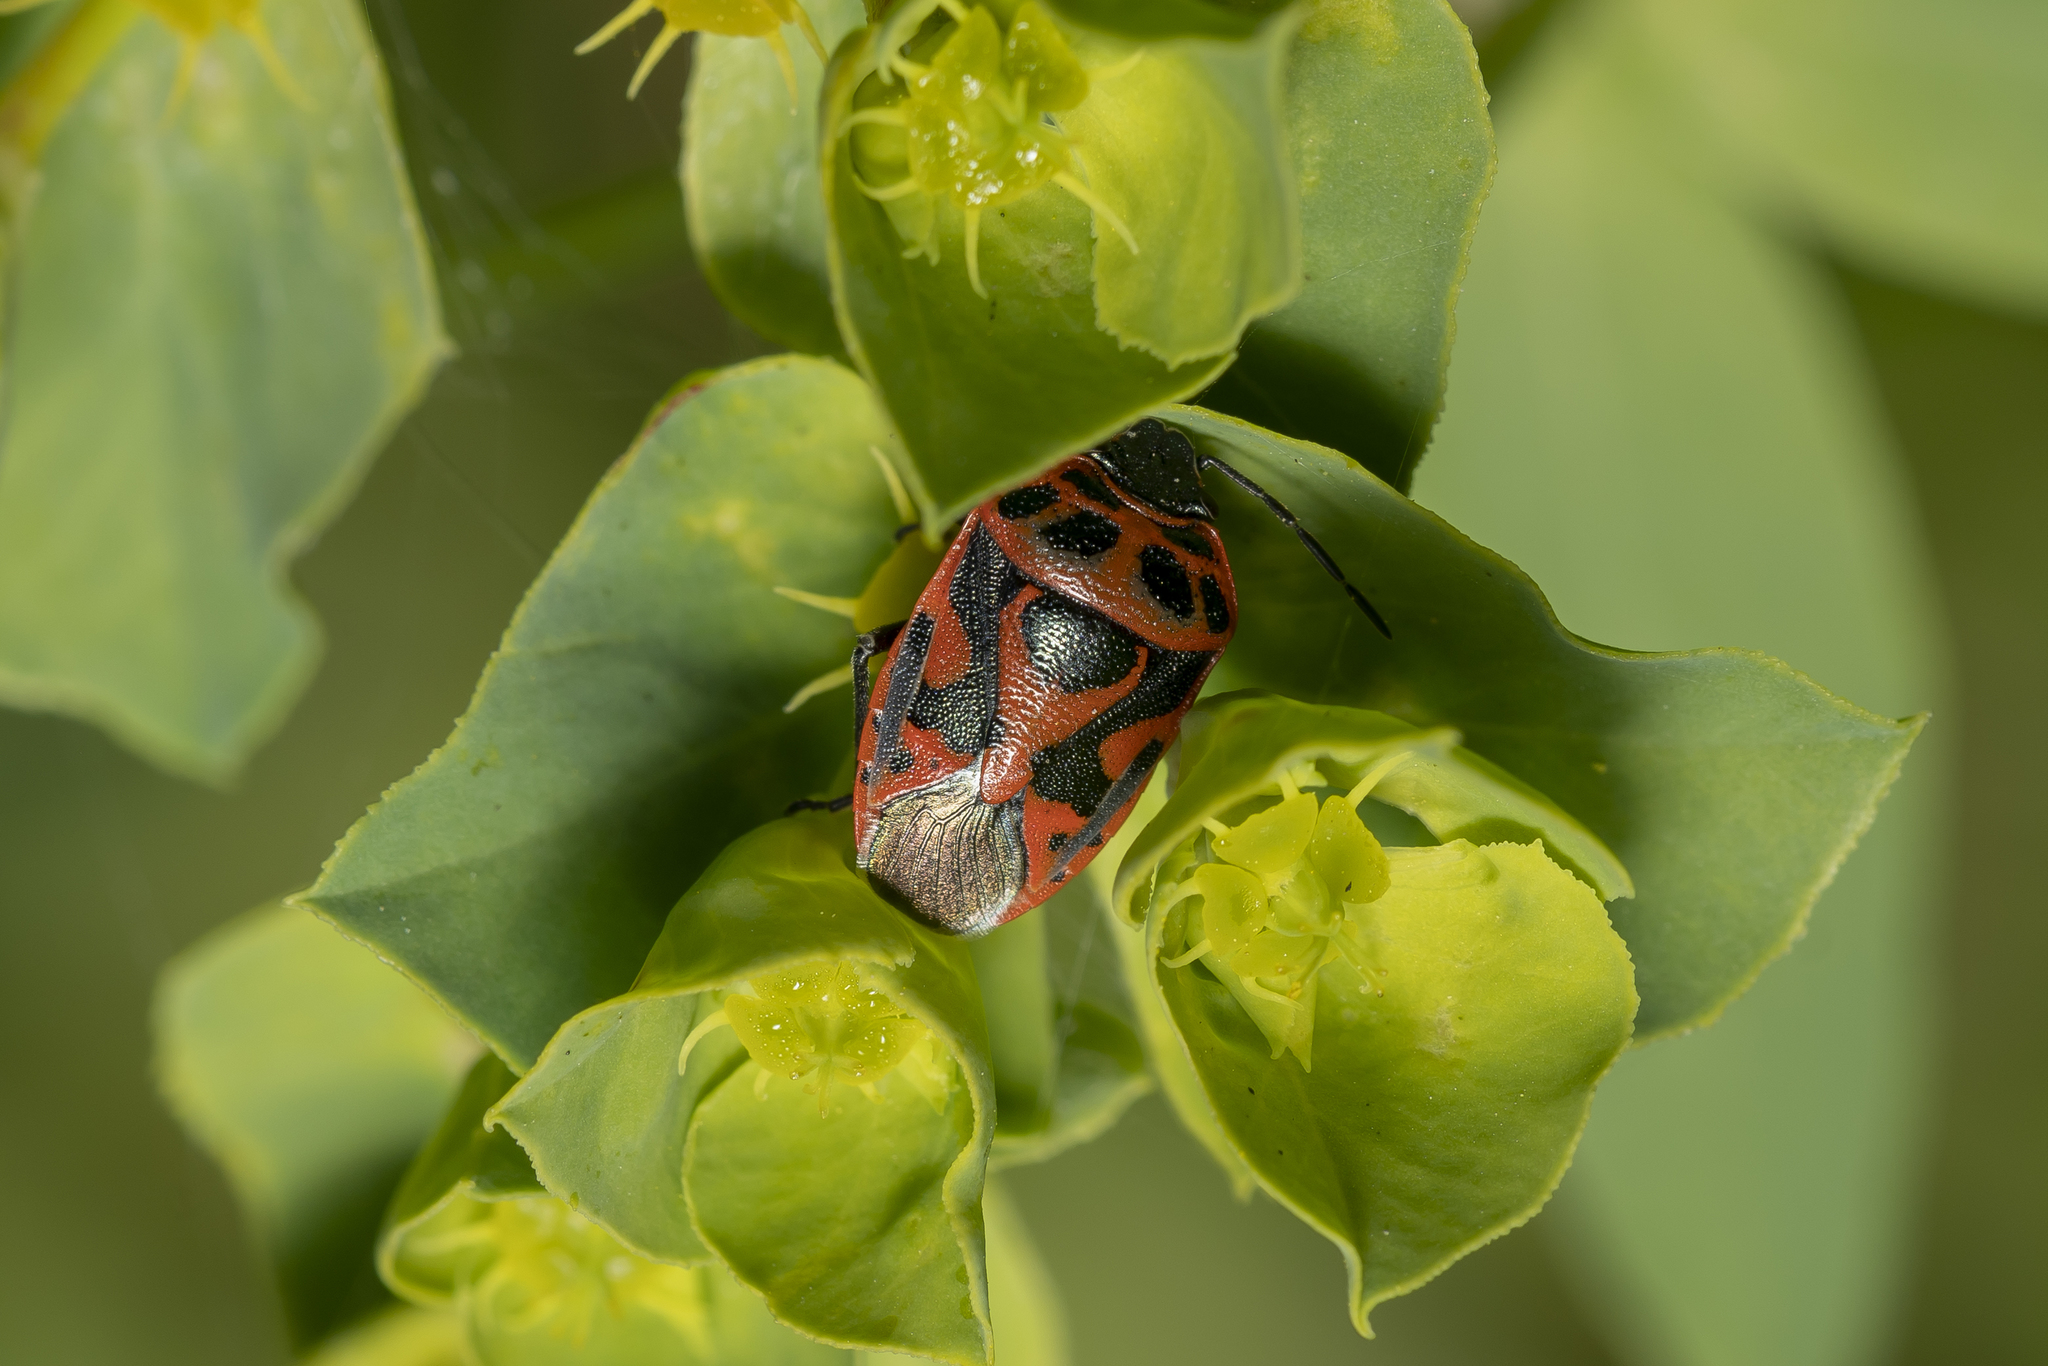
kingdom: Animalia
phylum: Arthropoda
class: Insecta
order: Hemiptera
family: Pentatomidae
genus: Eurydema
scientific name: Eurydema ornata
